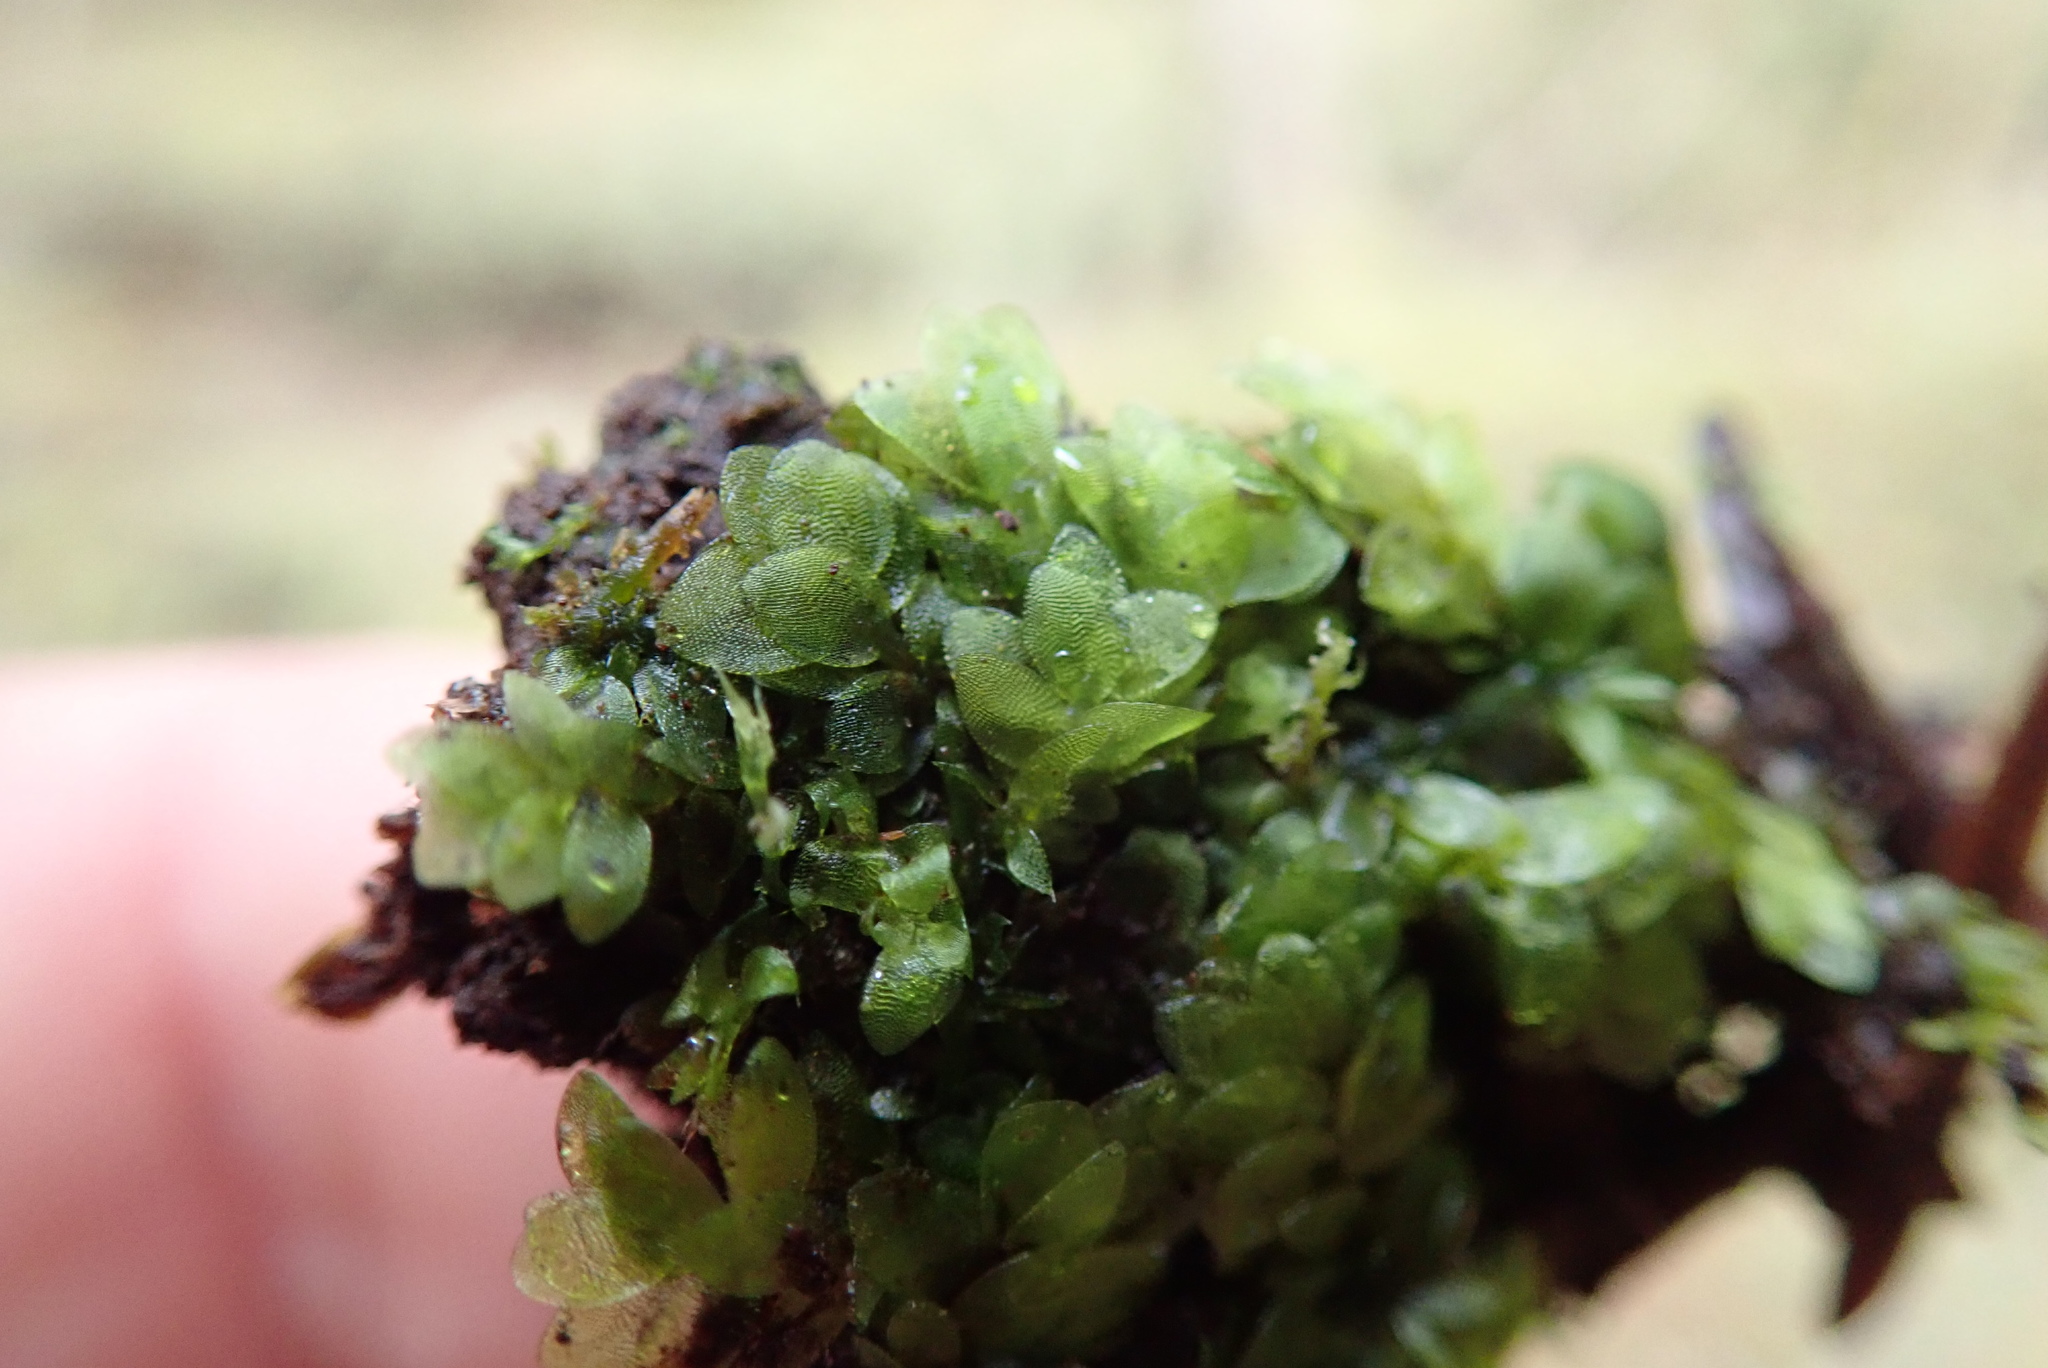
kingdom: Plantae
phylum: Bryophyta
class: Bryopsida
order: Hookeriales
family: Hookeriaceae
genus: Hookeria
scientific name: Hookeria lucens
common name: Shining hookeria
